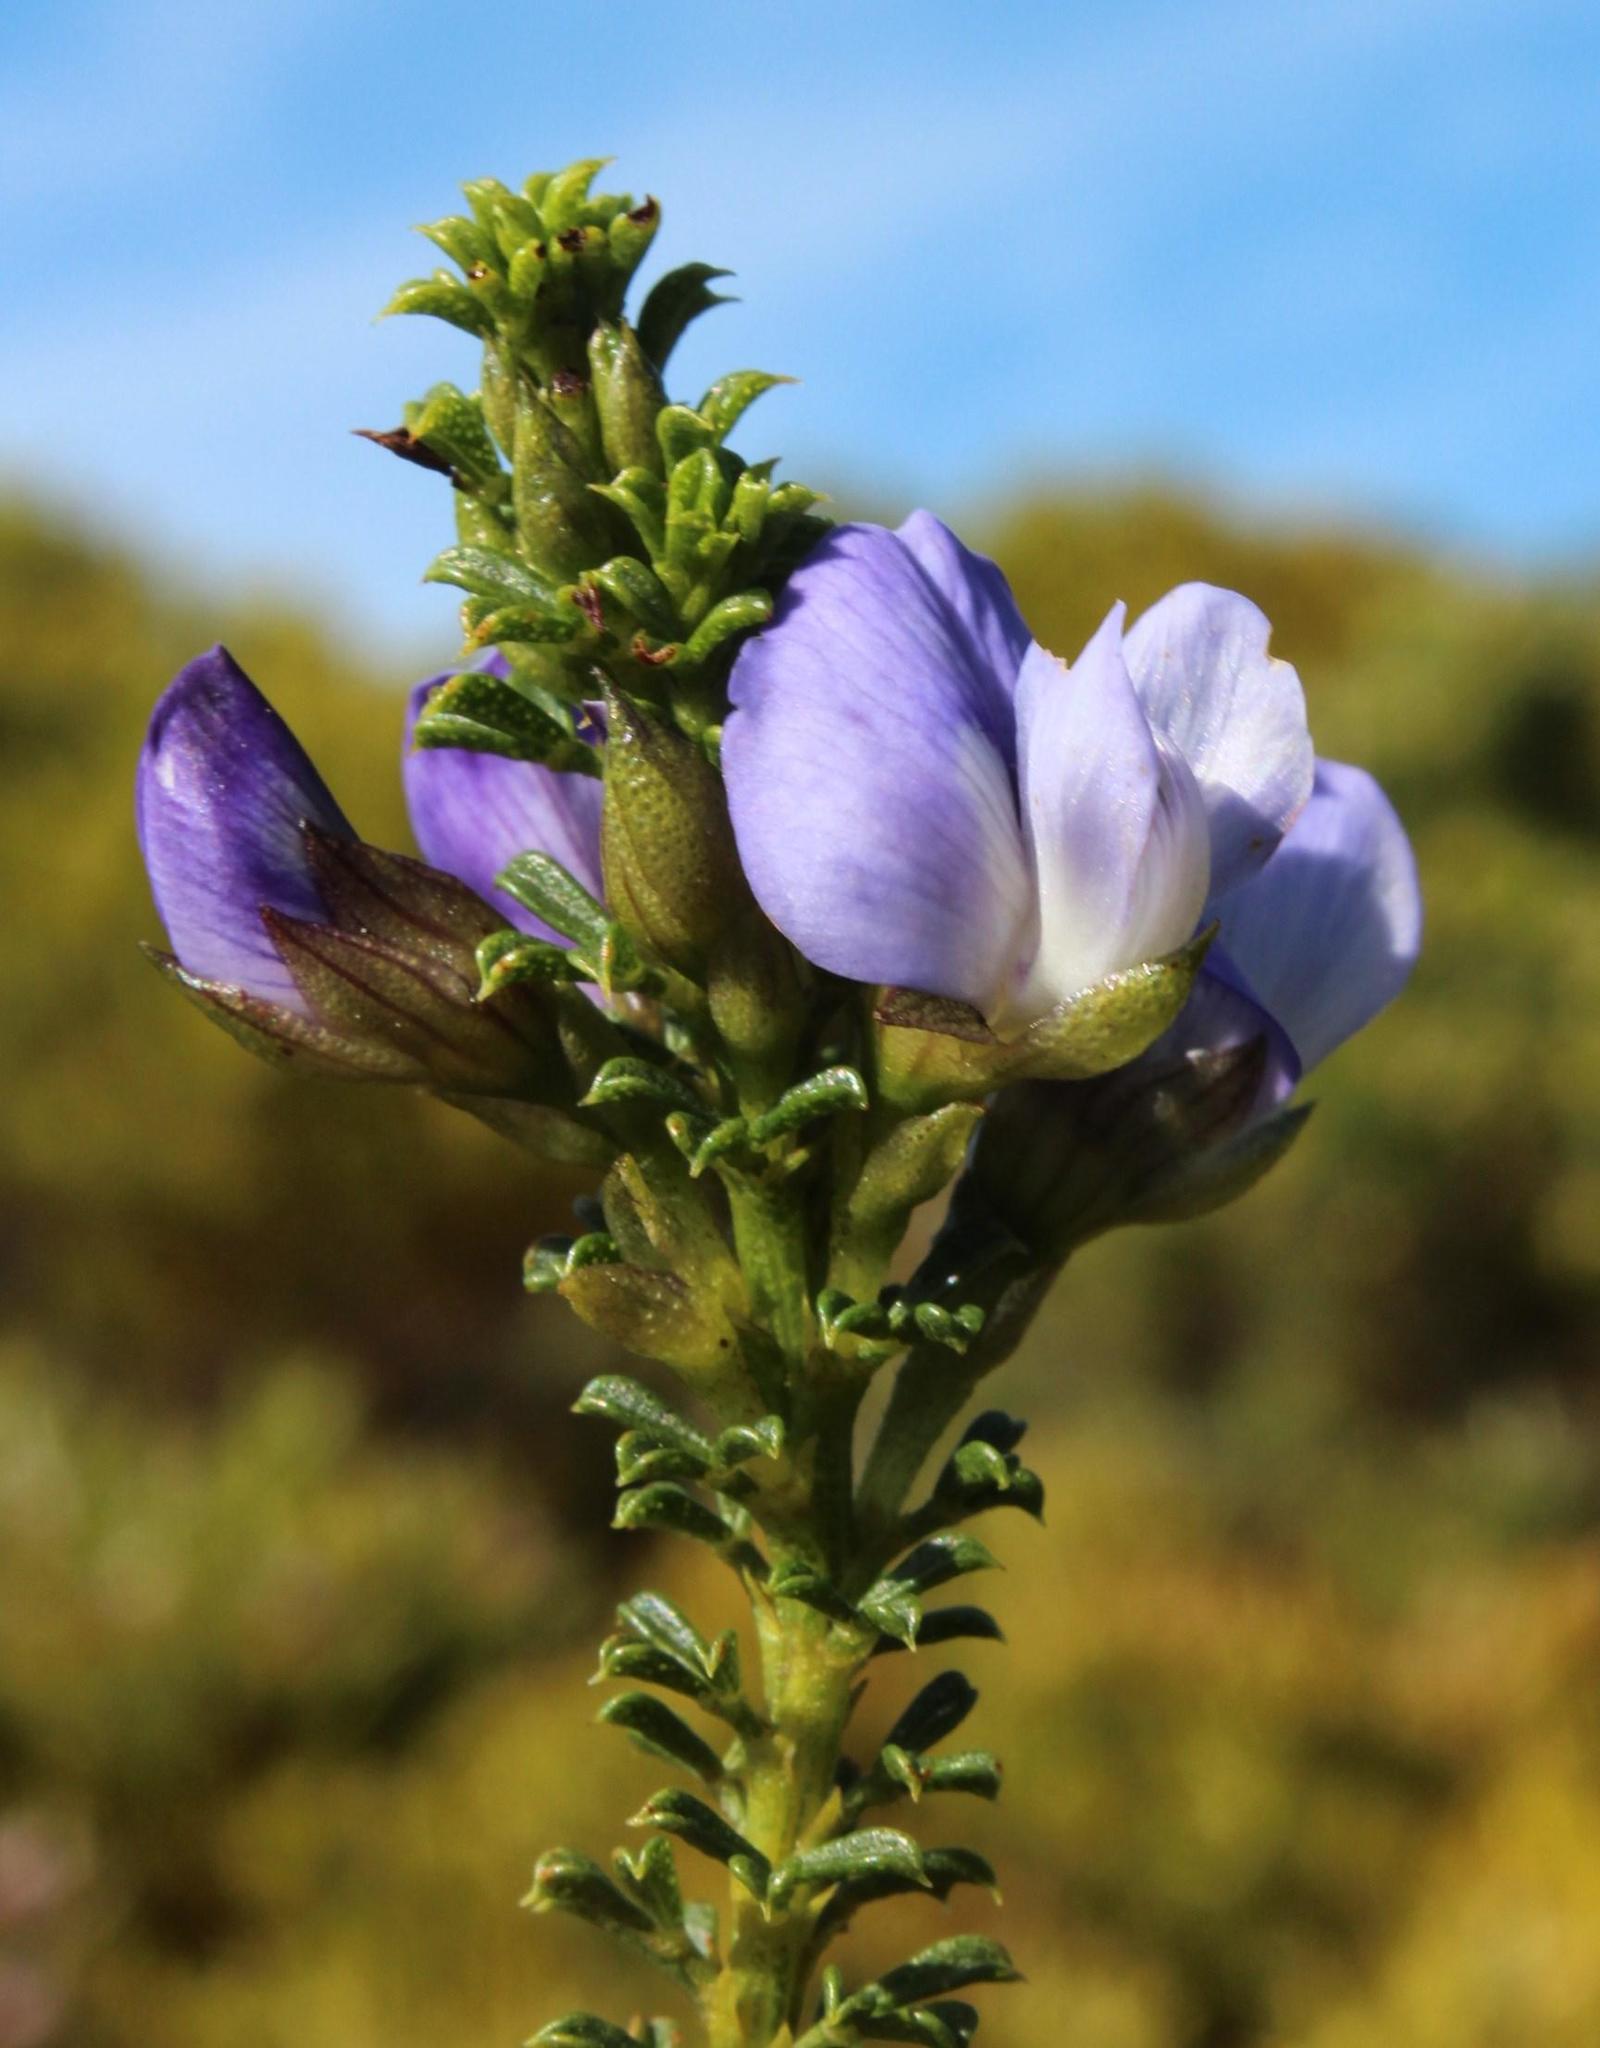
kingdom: Plantae
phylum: Tracheophyta
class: Magnoliopsida
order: Fabales
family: Fabaceae
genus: Psoralea
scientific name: Psoralea aculeata
